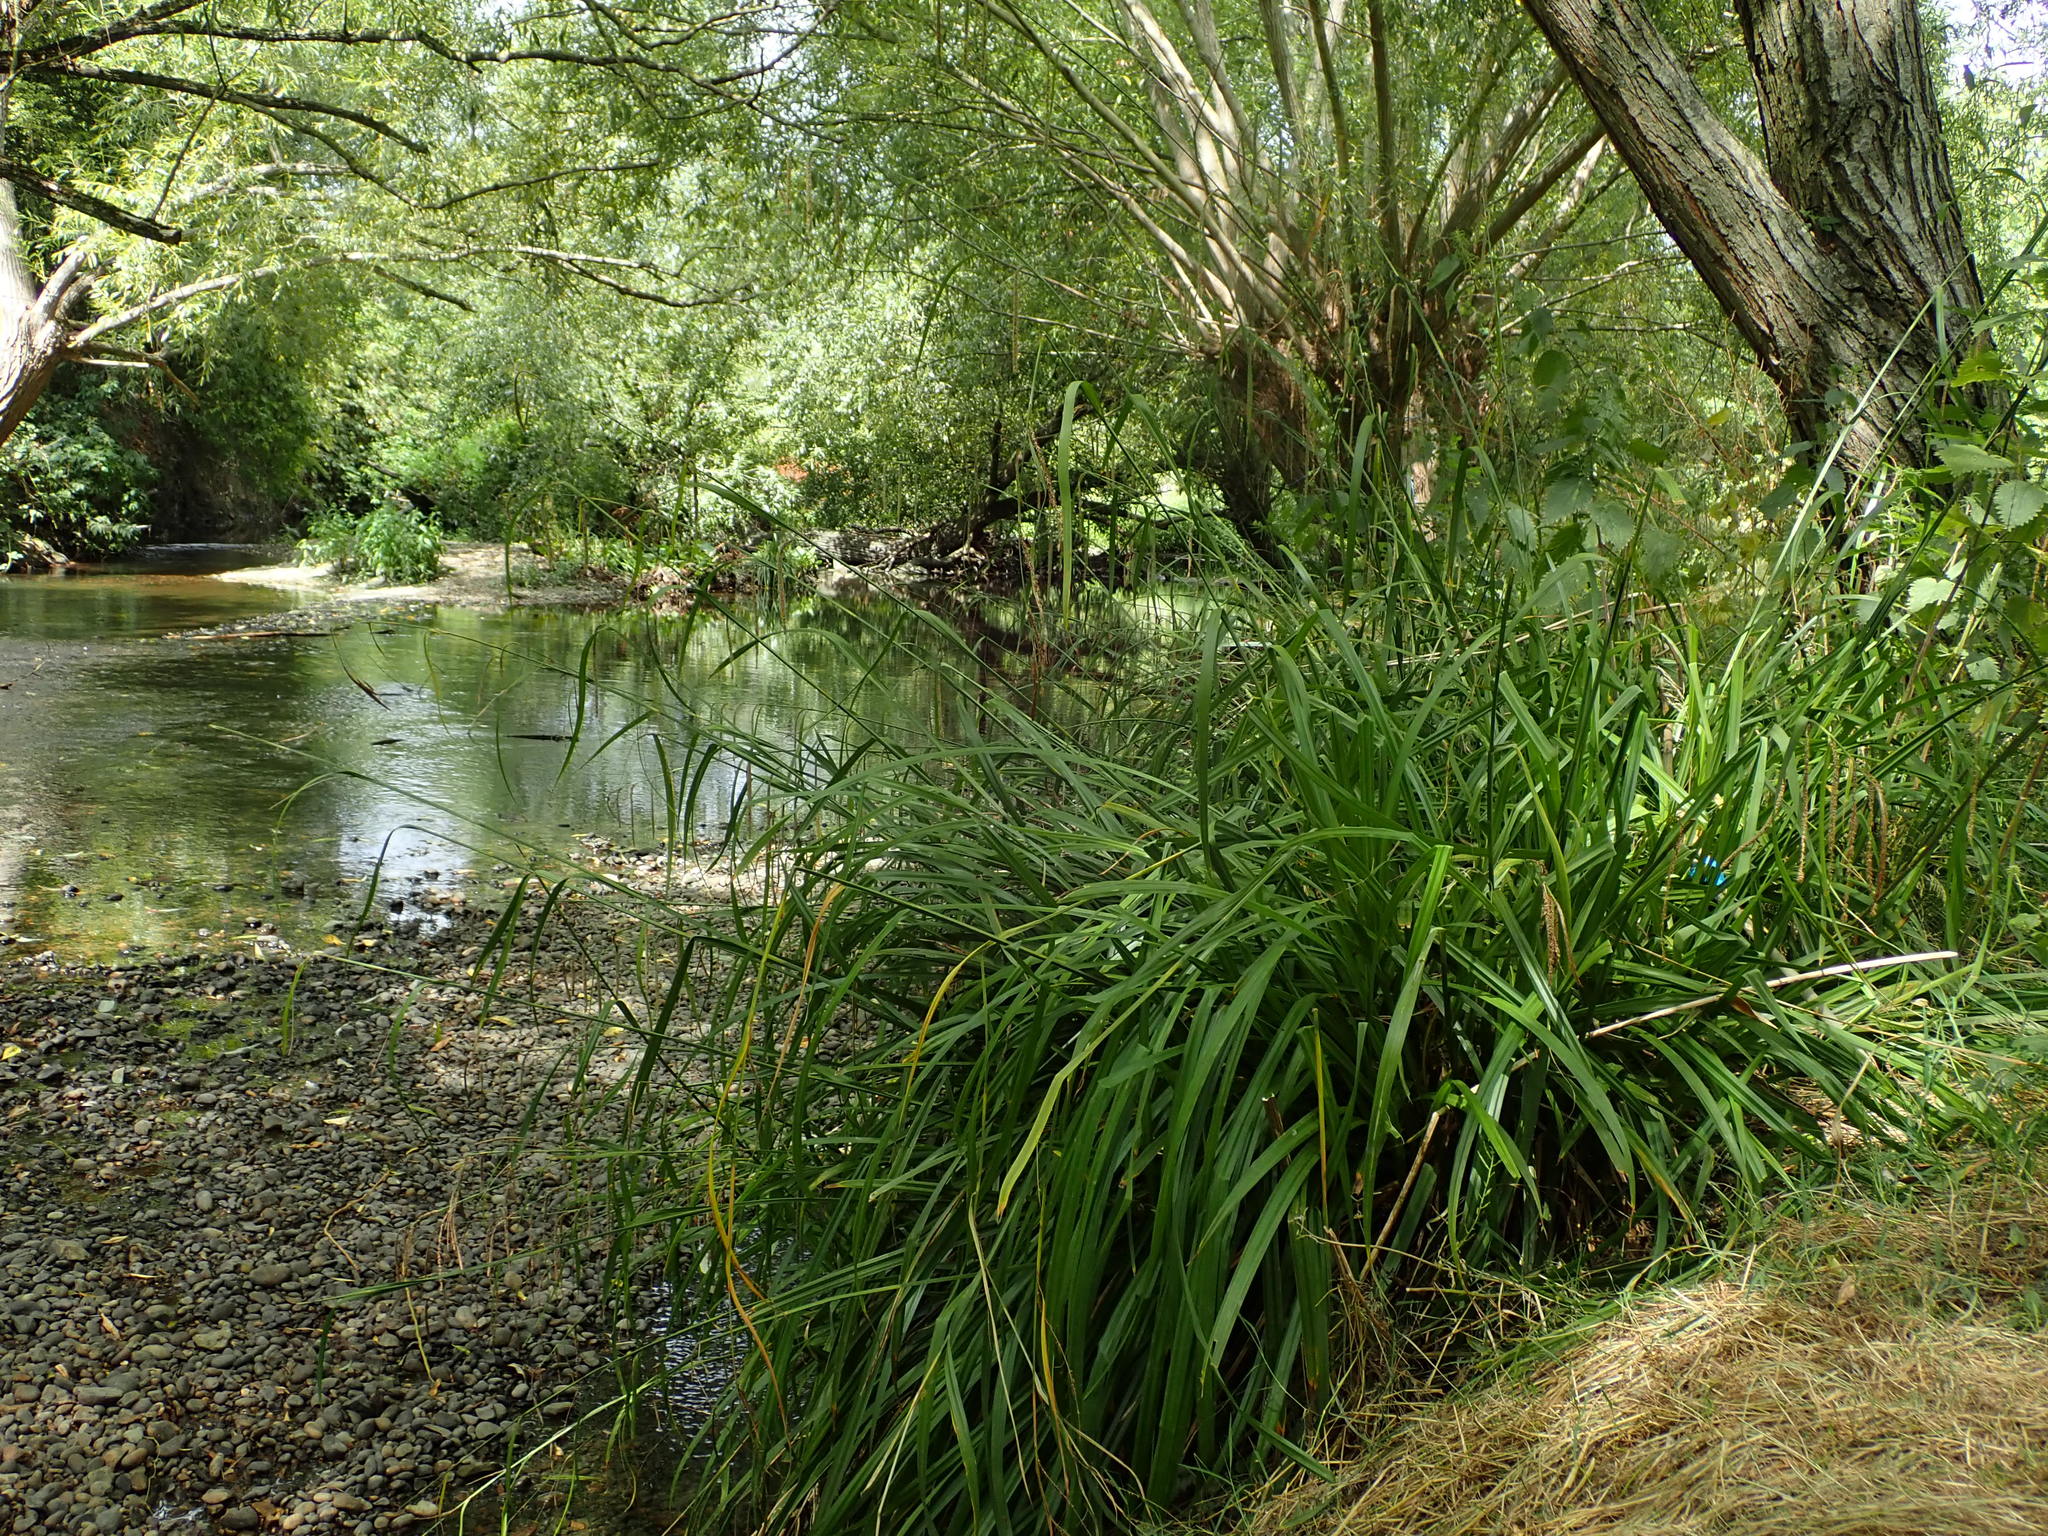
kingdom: Plantae
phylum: Tracheophyta
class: Liliopsida
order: Poales
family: Cyperaceae
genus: Carex
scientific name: Carex pendula
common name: Pendulous sedge
